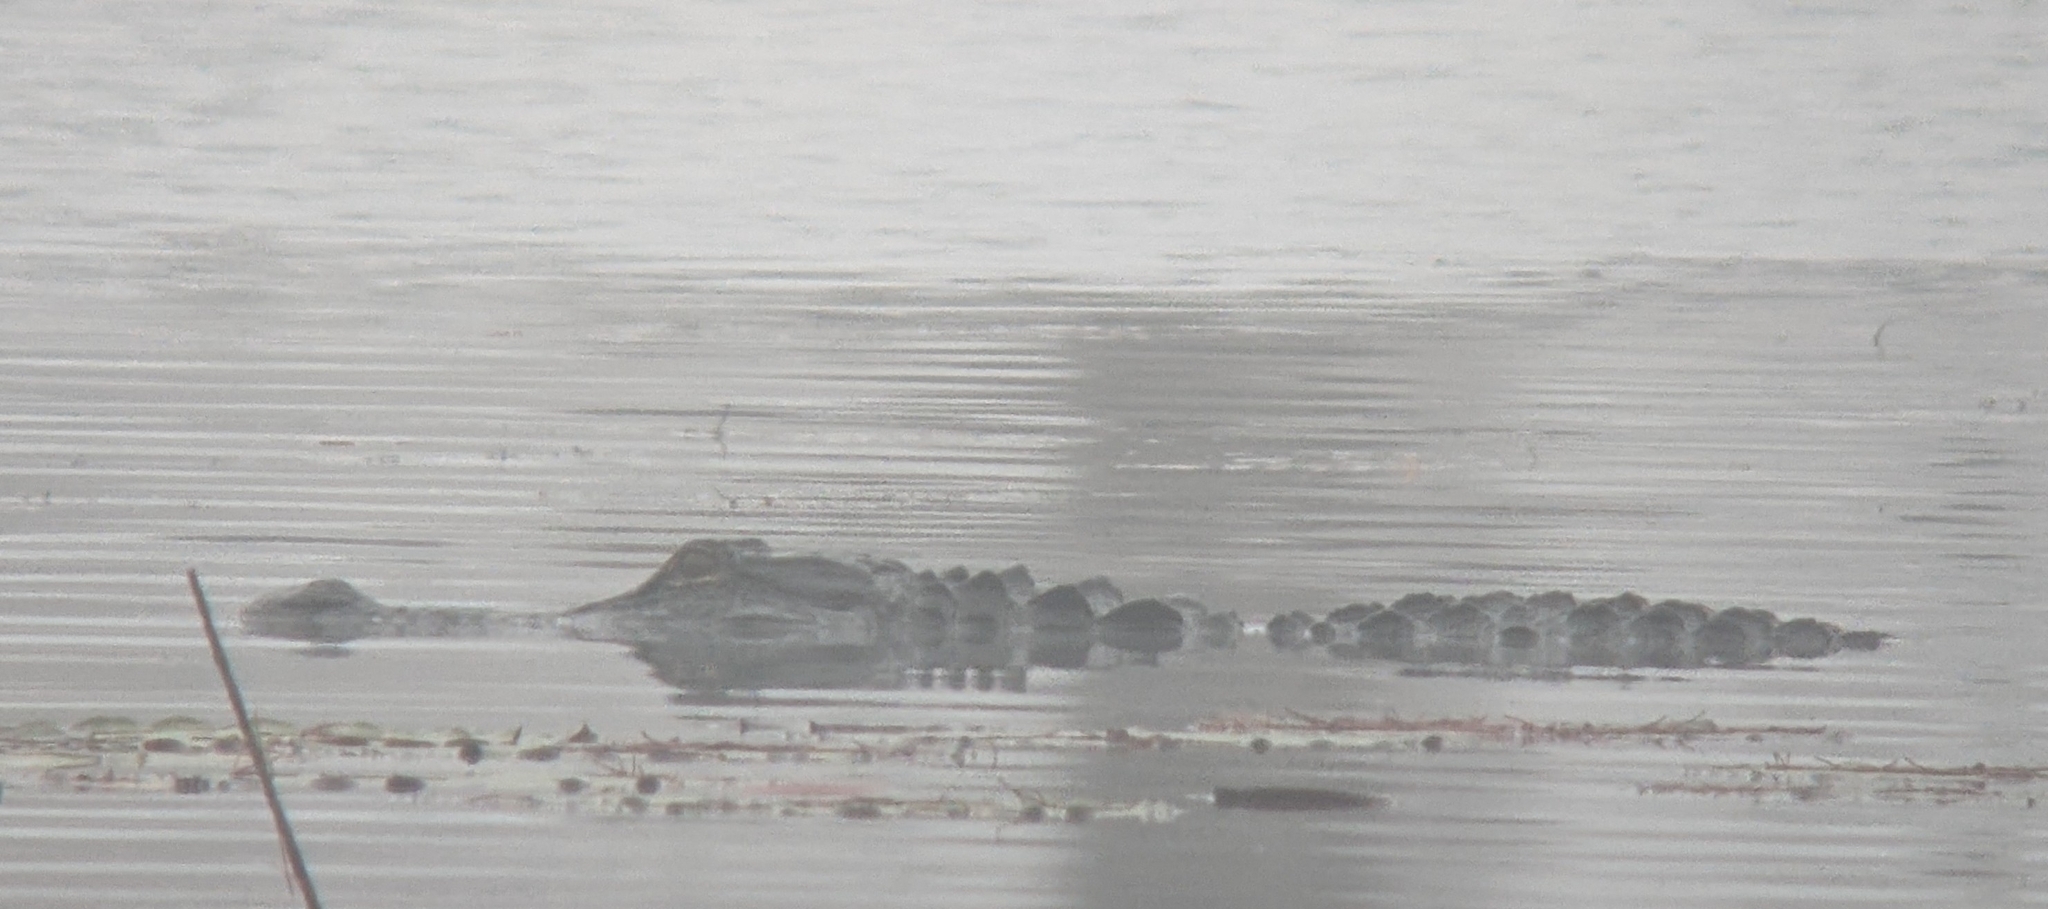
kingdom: Animalia
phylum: Chordata
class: Crocodylia
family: Alligatoridae
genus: Alligator
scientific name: Alligator mississippiensis
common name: American alligator
